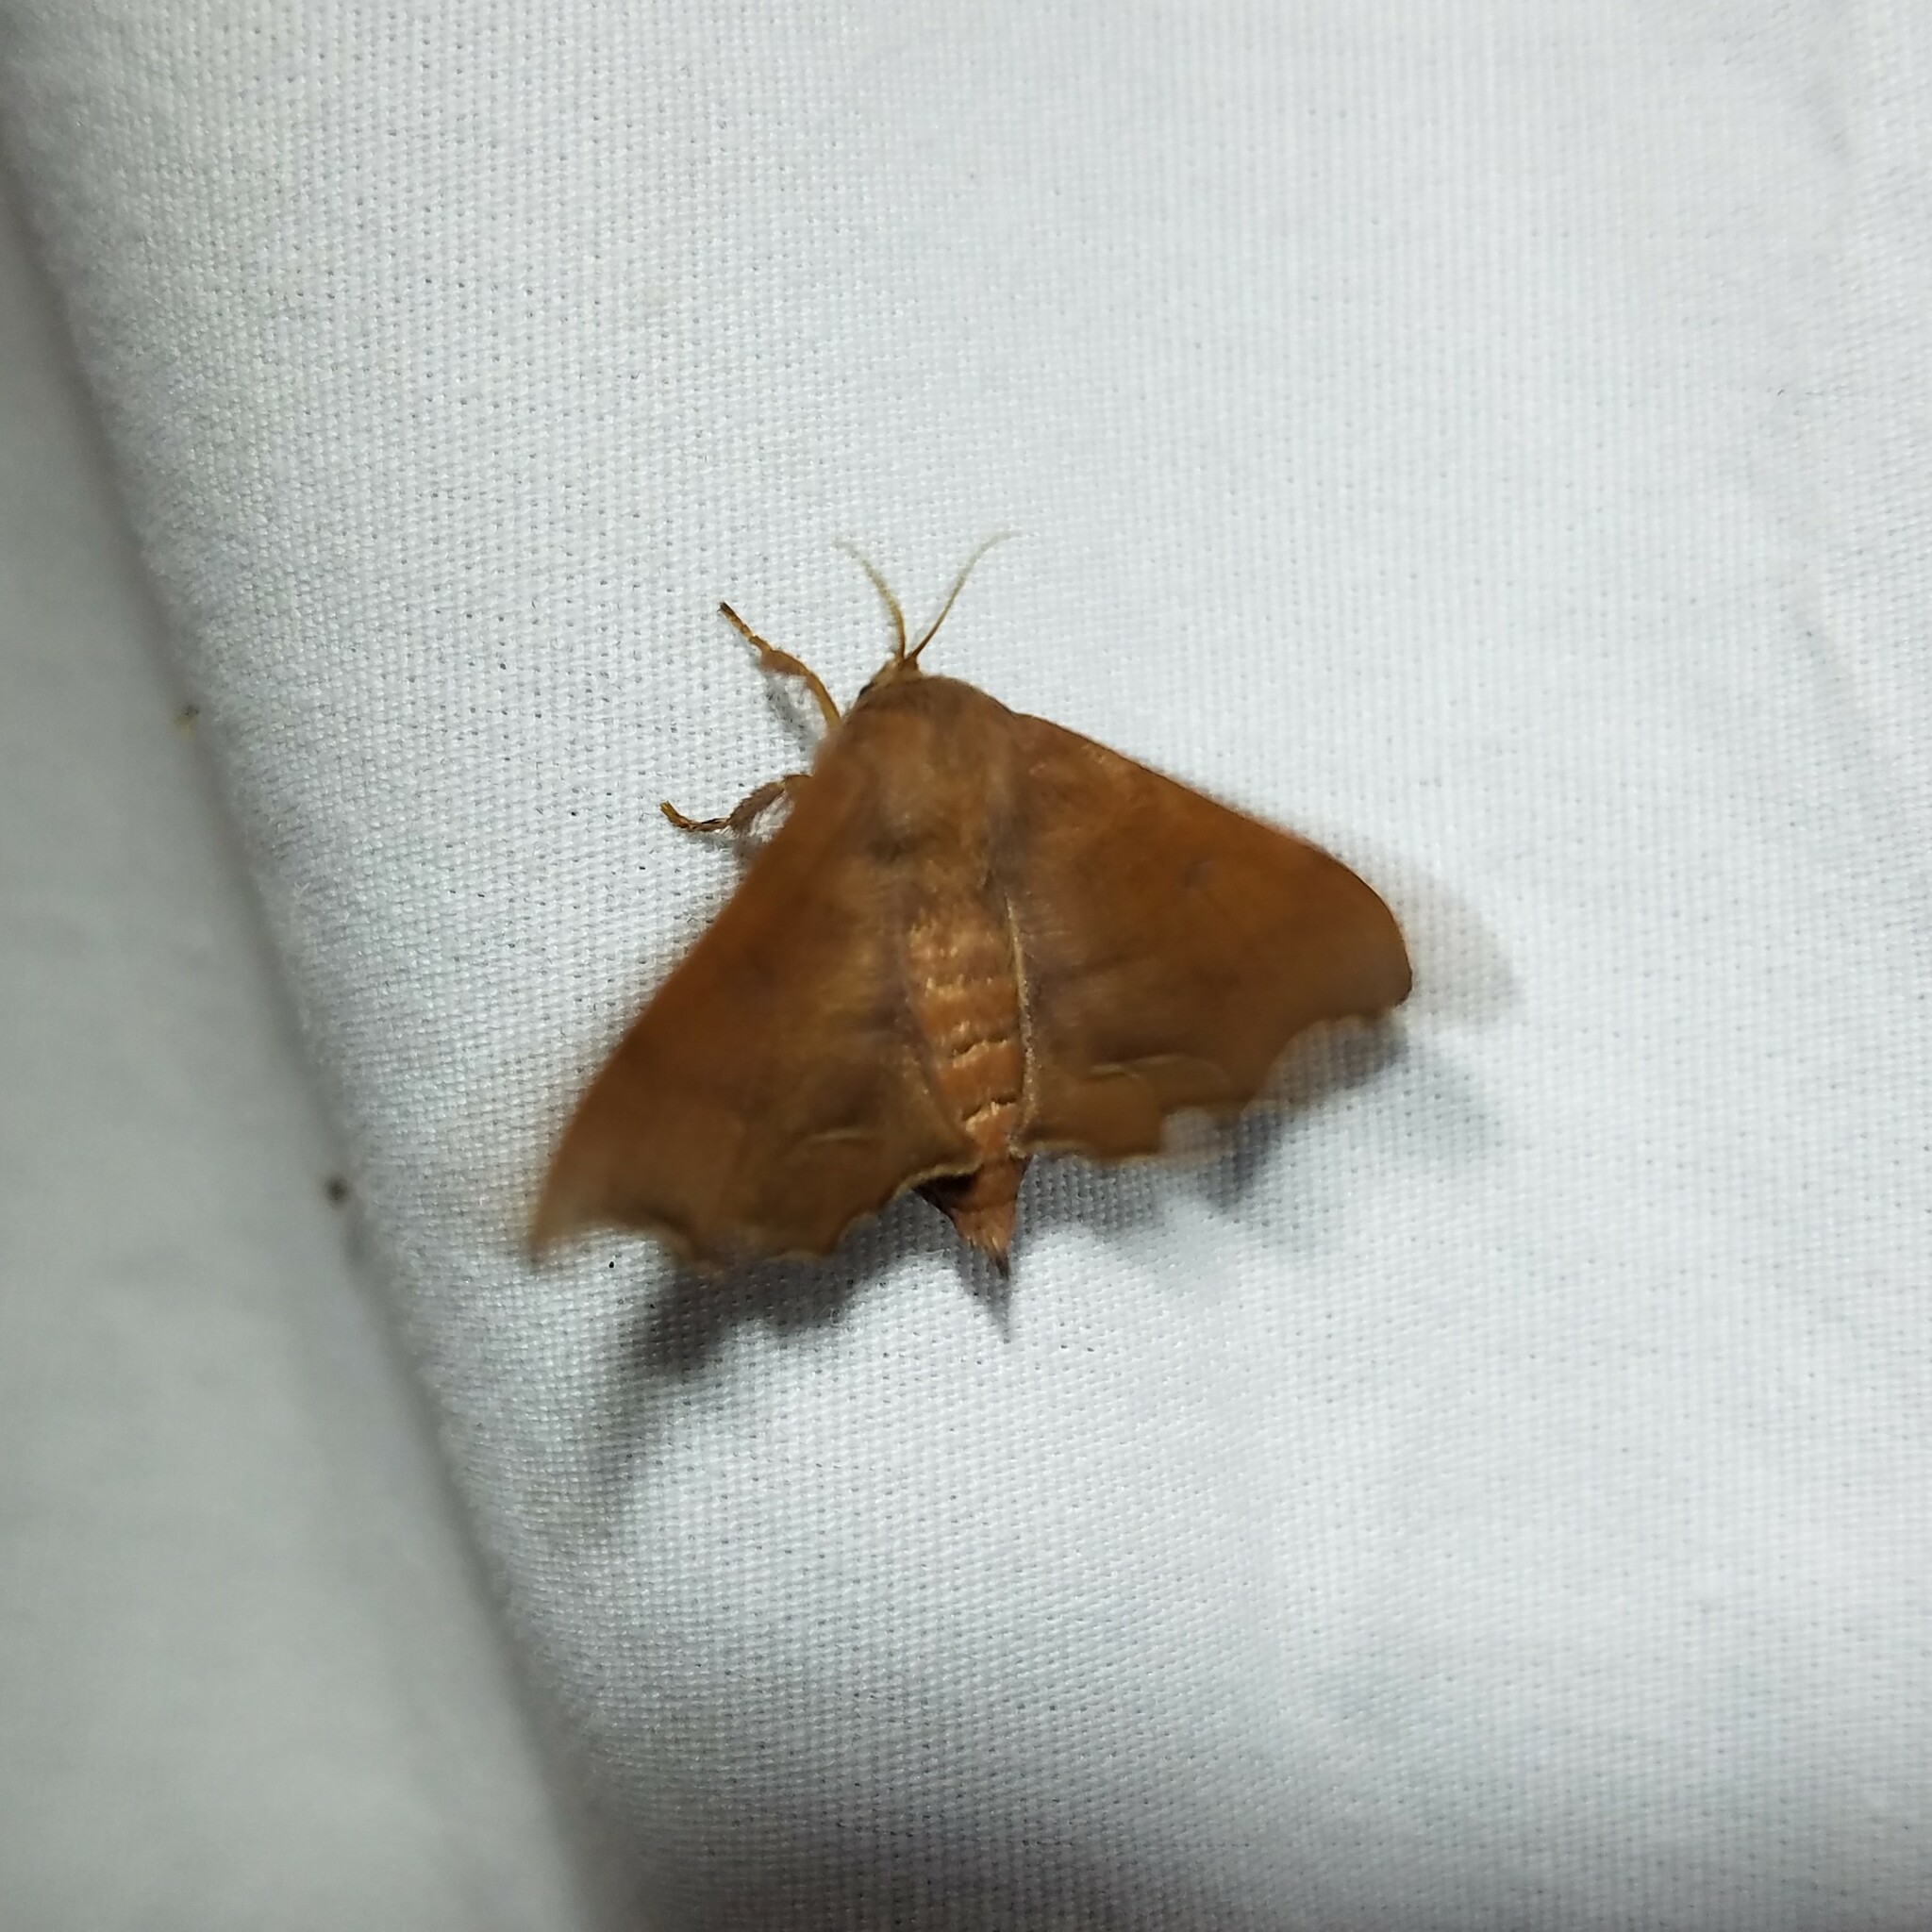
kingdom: Animalia
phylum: Arthropoda
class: Insecta
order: Lepidoptera
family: Mimallonidae
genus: Lacosoma
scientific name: Lacosoma chiridota
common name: Scalloped sack-bearer moth
